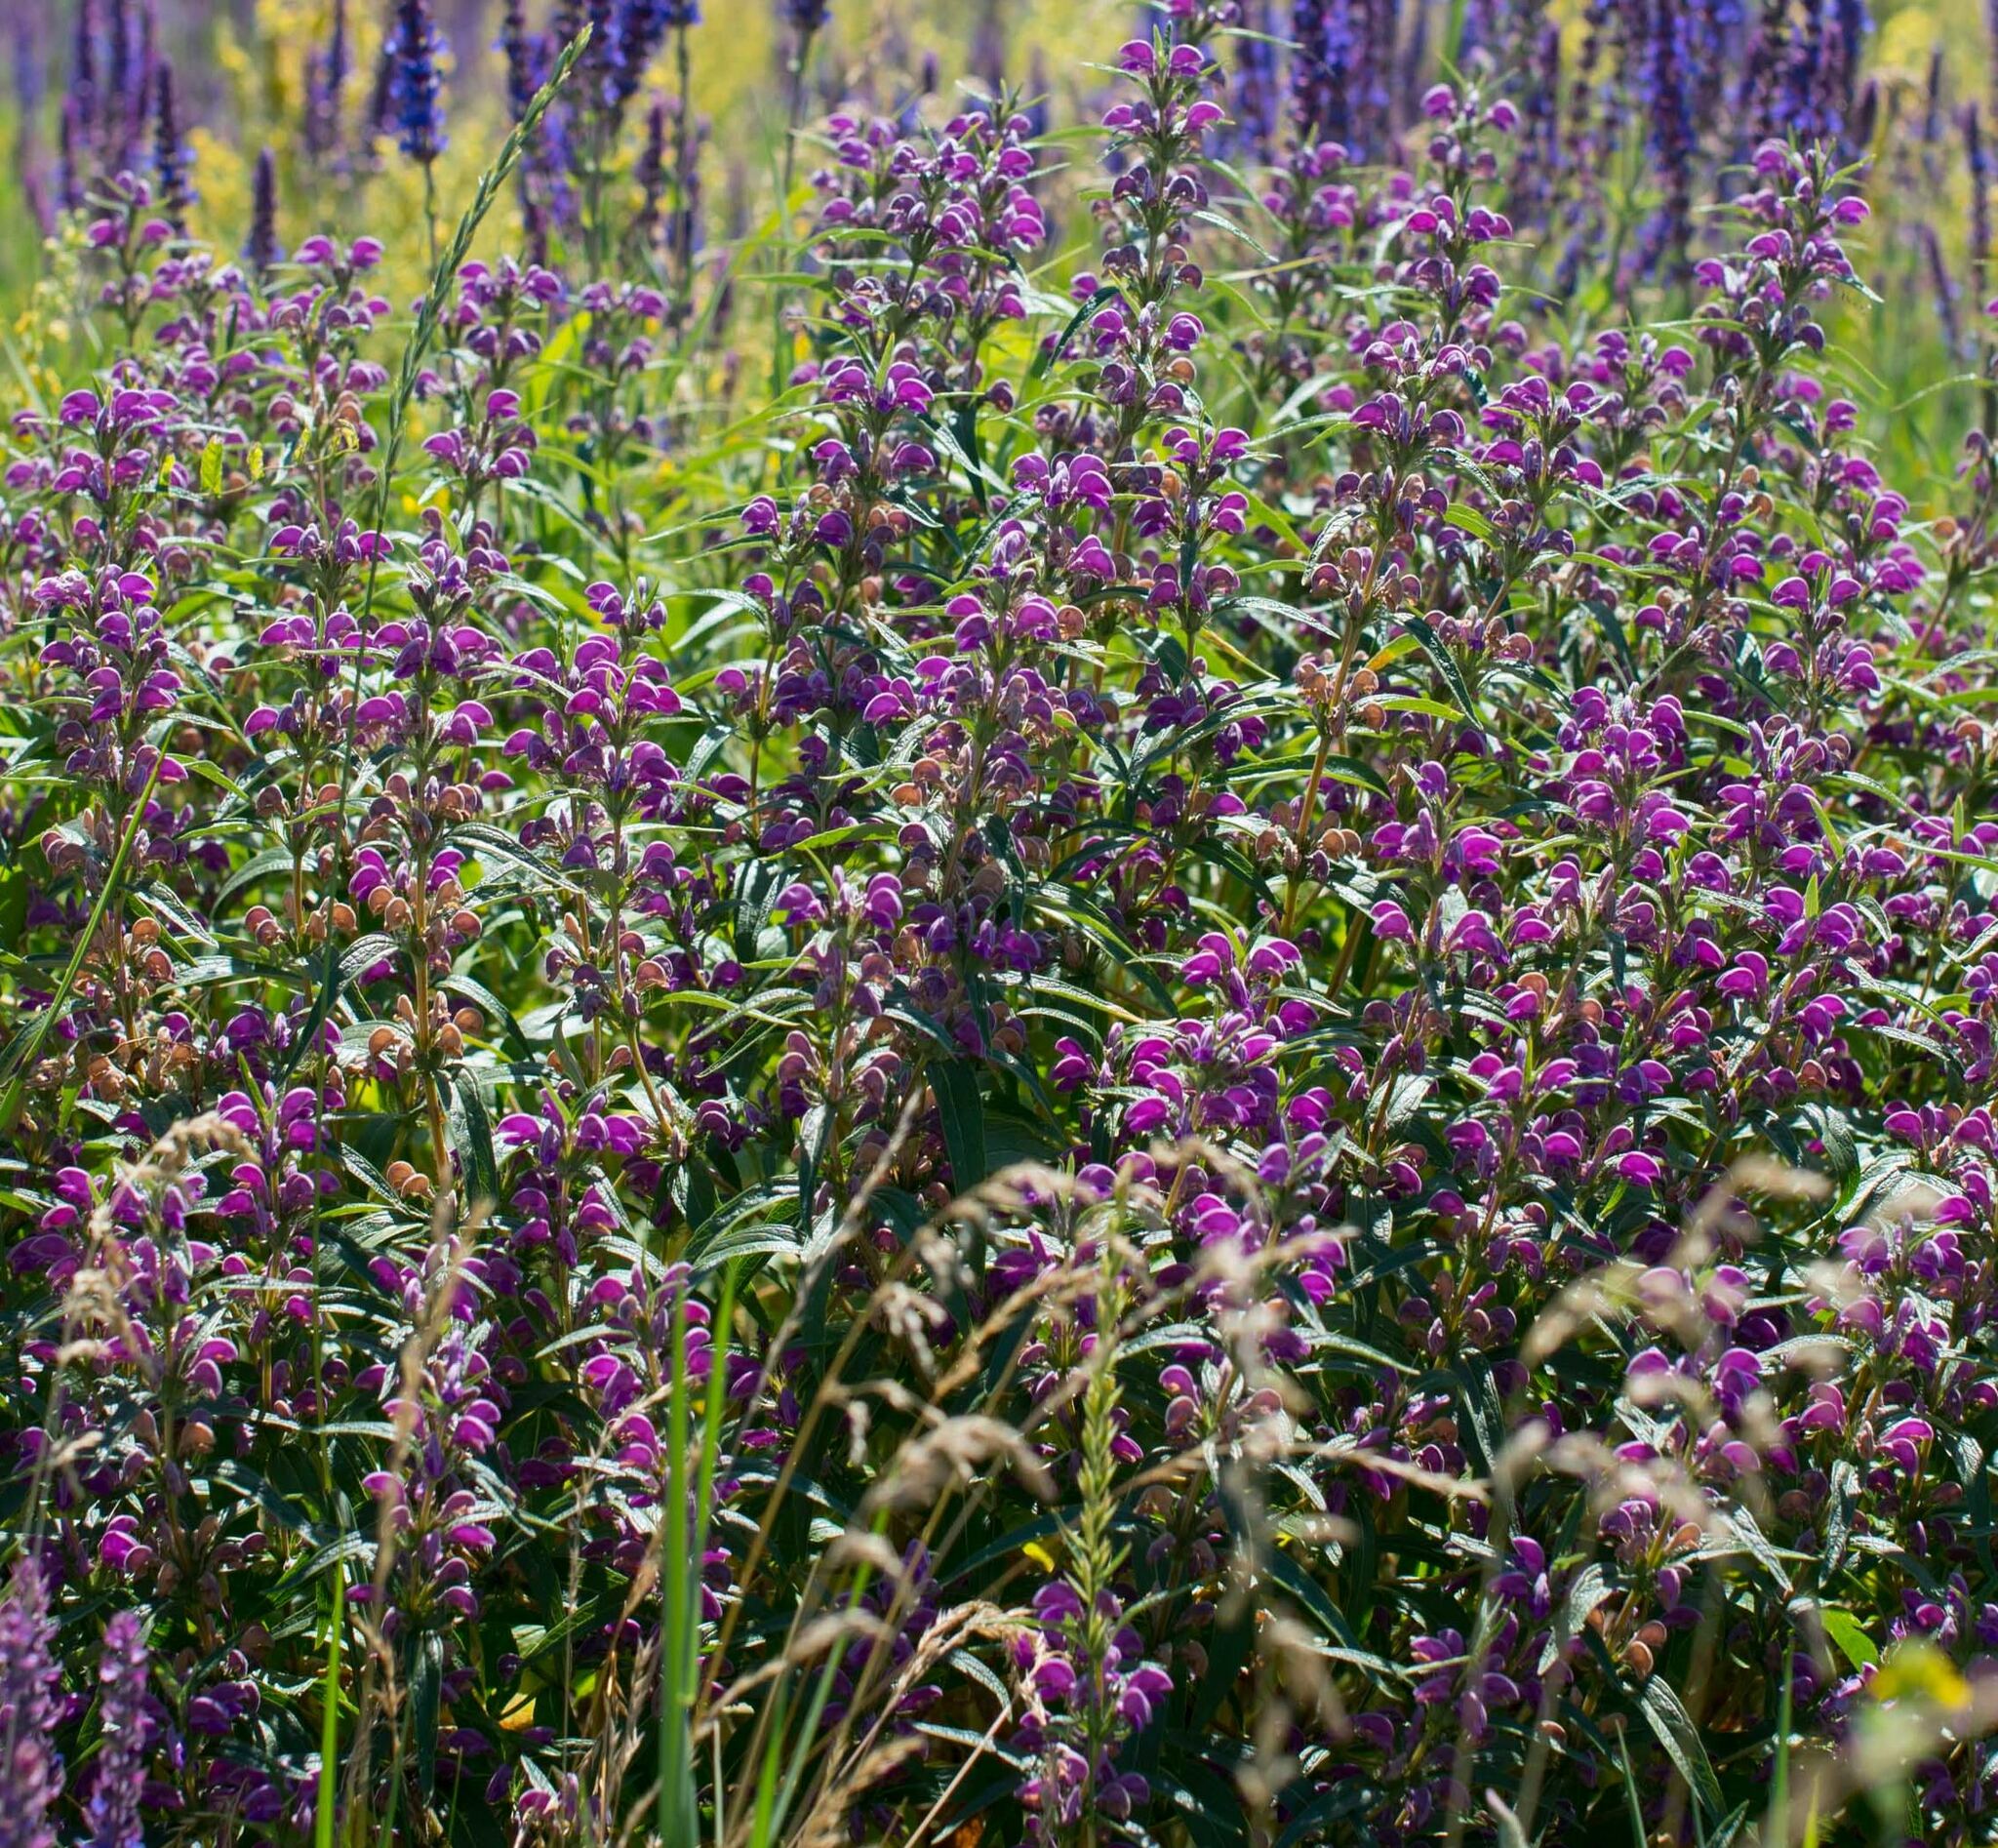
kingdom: Plantae
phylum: Tracheophyta
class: Magnoliopsida
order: Lamiales
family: Lamiaceae
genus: Phlomis
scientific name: Phlomis herba-venti
